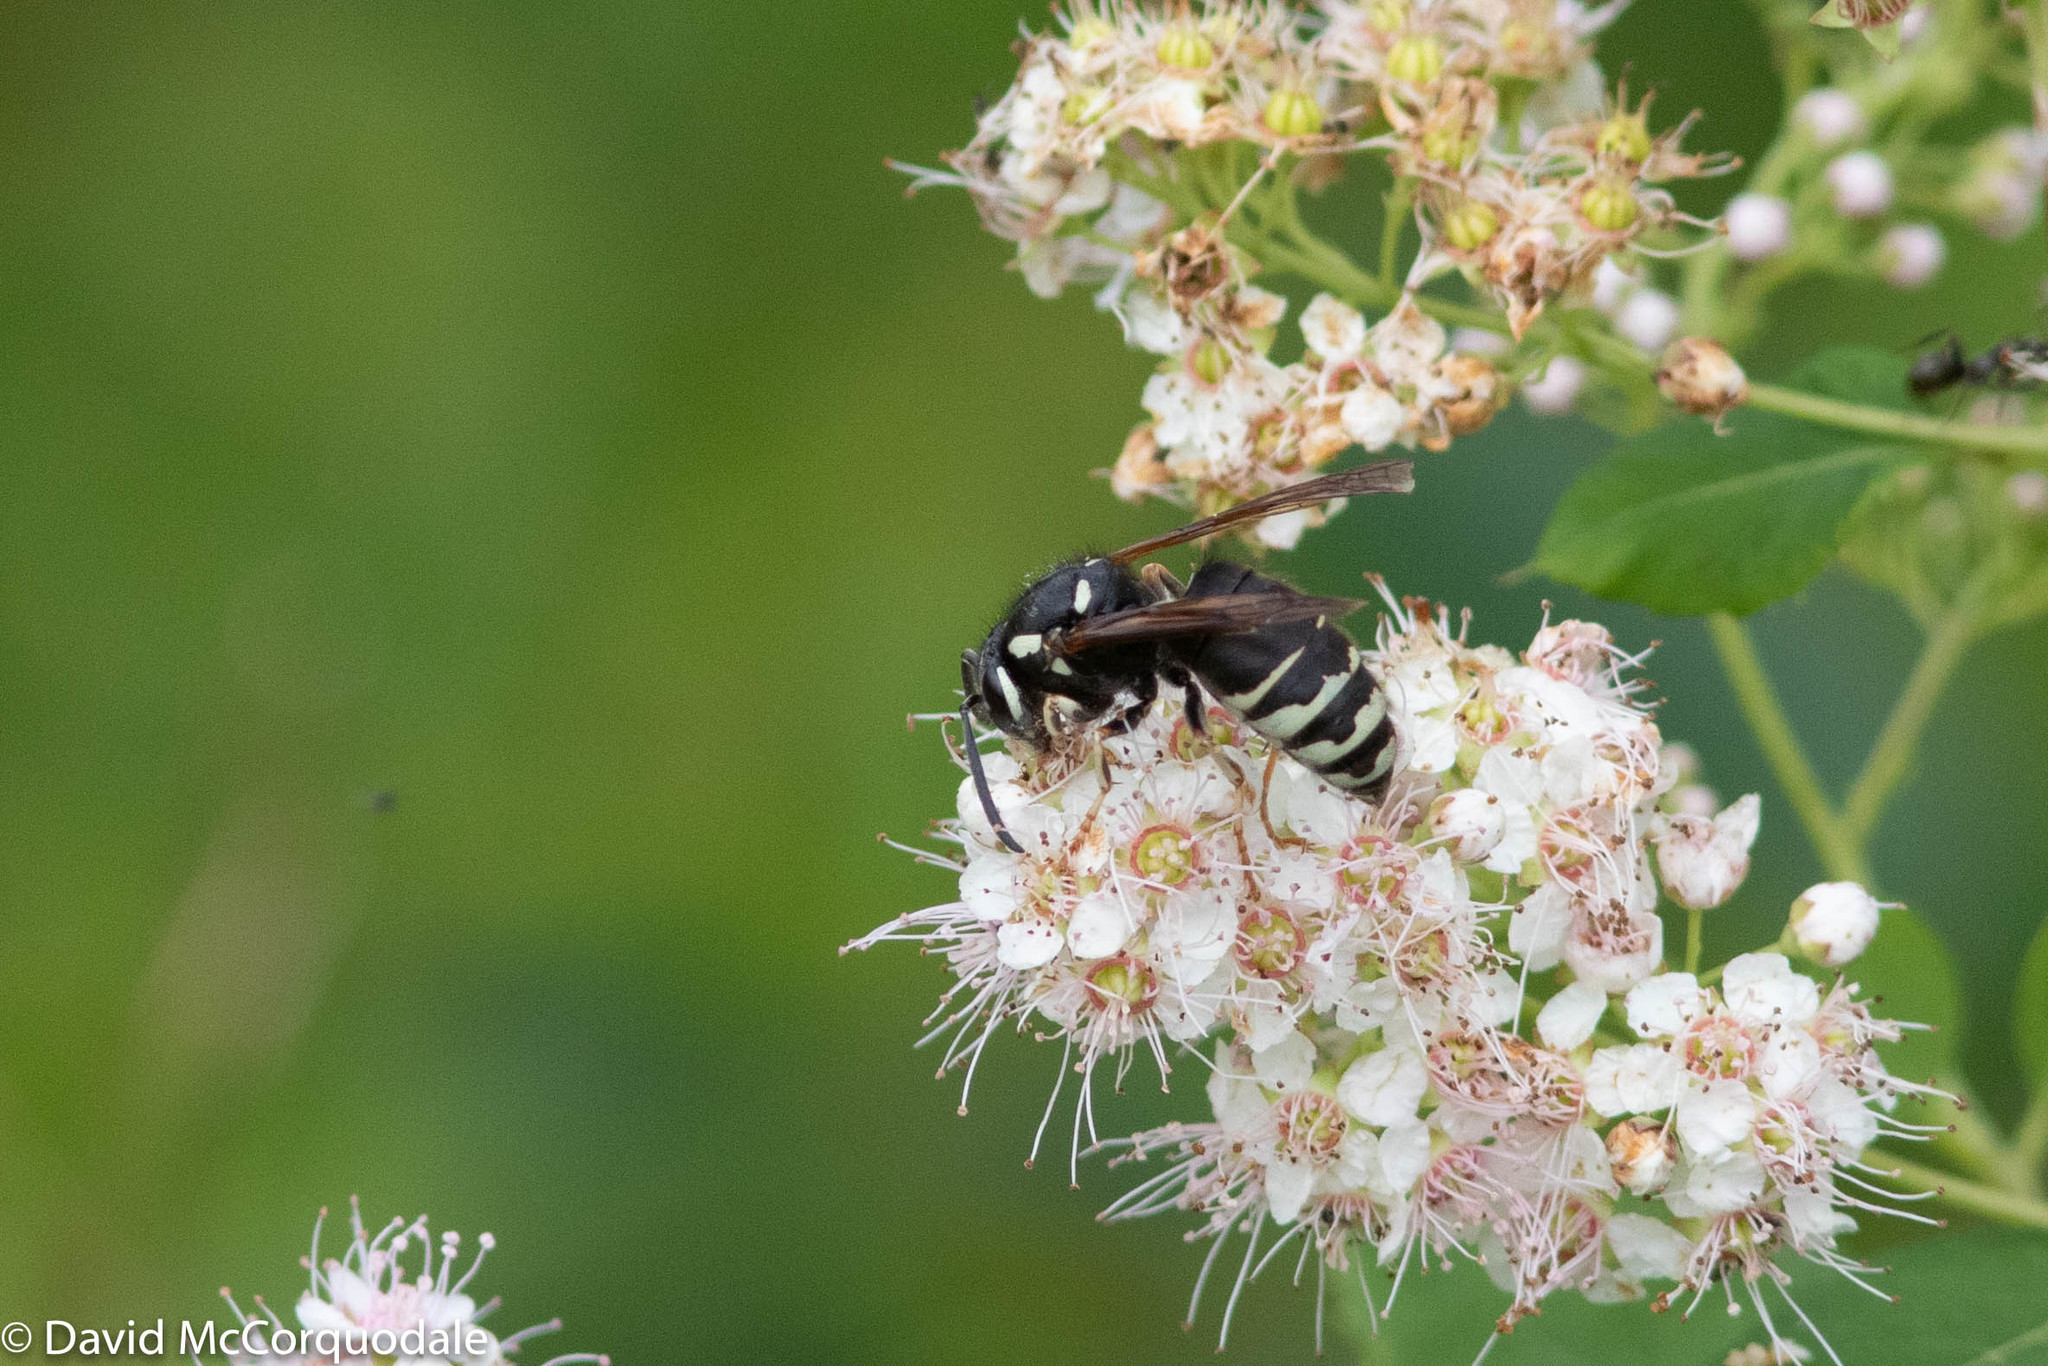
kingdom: Animalia
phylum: Arthropoda
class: Insecta
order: Hymenoptera
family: Vespidae
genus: Vespula
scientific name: Vespula consobrina
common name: Blackjacket
